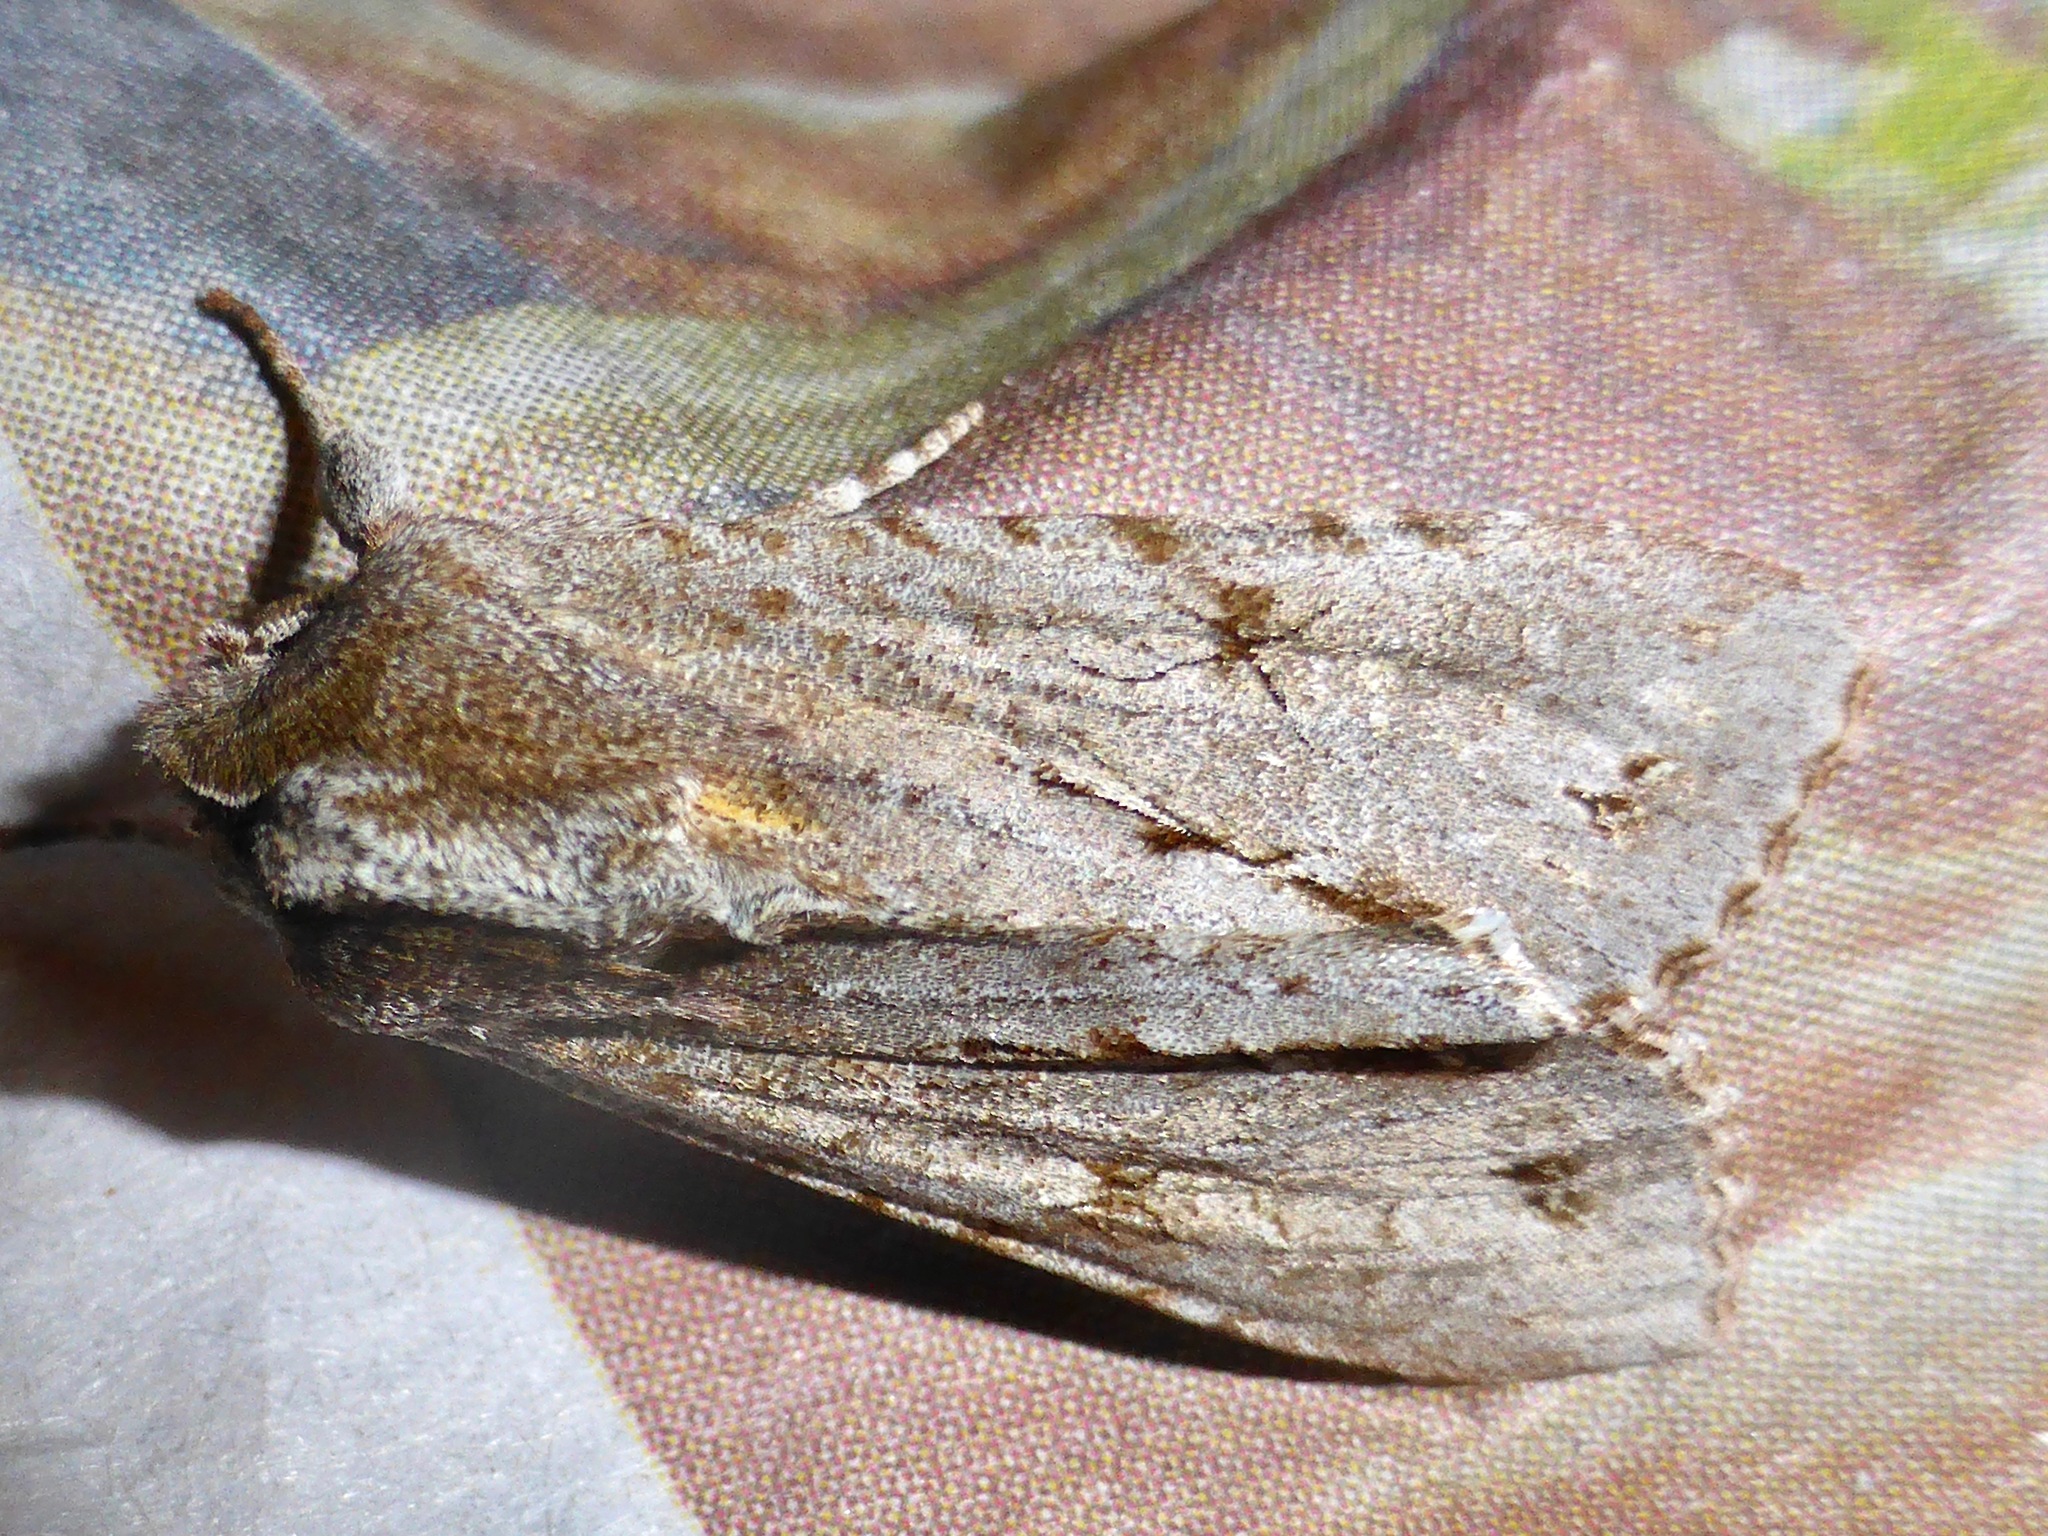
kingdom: Animalia
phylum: Arthropoda
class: Insecta
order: Lepidoptera
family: Noctuidae
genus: Ichneutica
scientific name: Ichneutica
